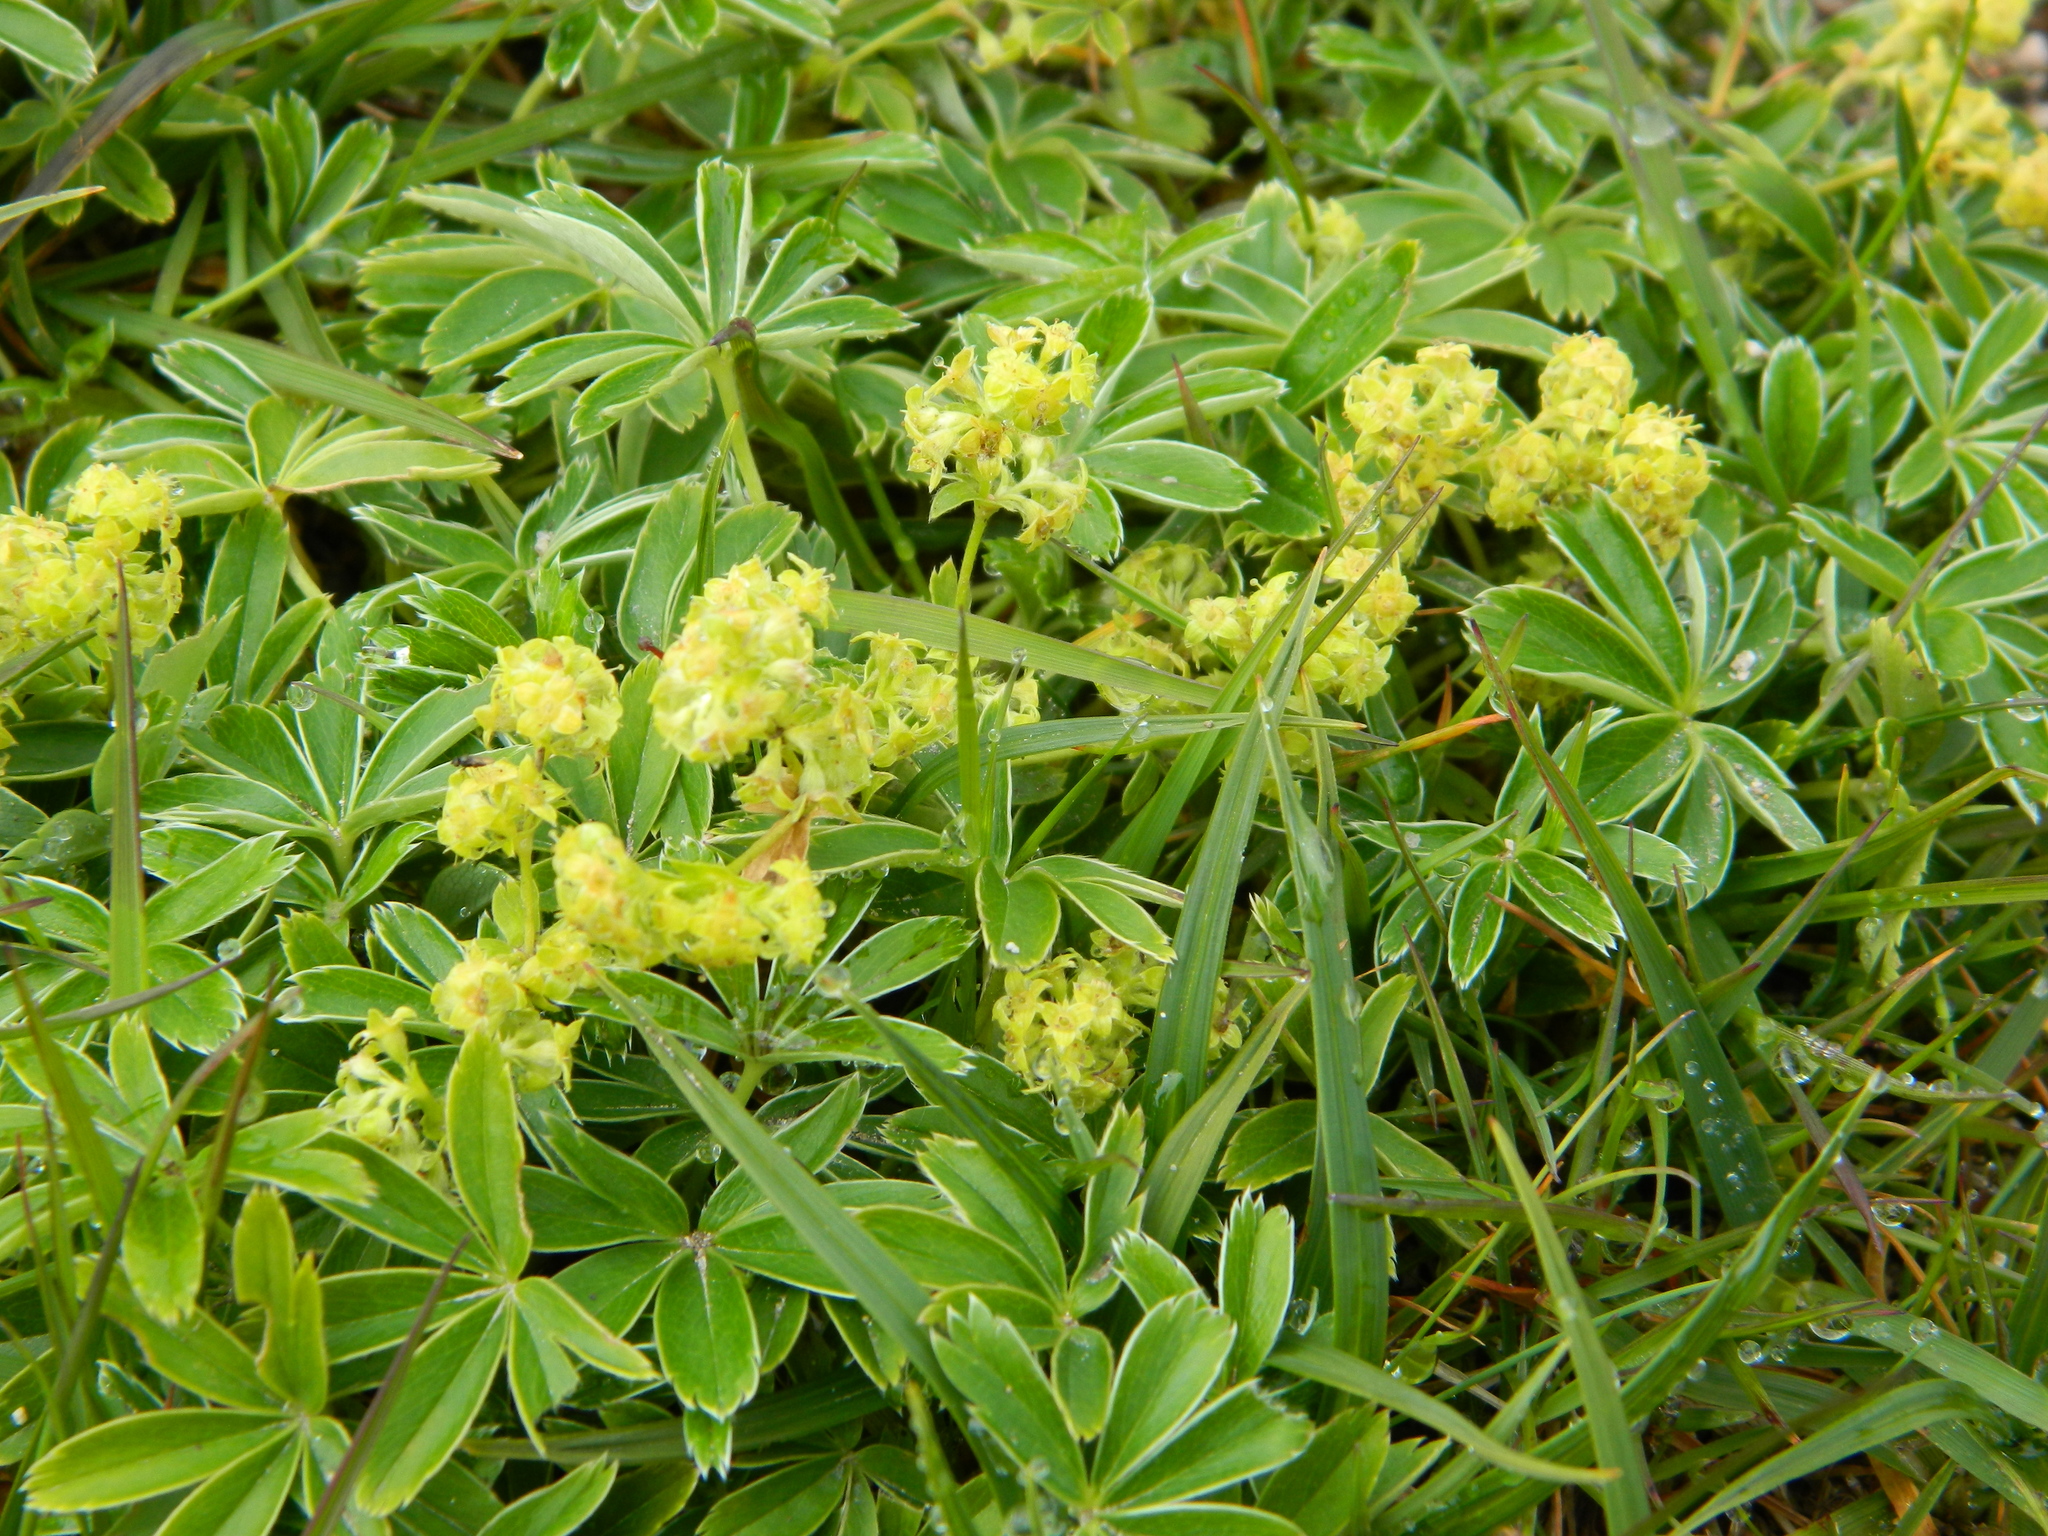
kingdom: Plantae
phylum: Tracheophyta
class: Magnoliopsida
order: Rosales
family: Rosaceae
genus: Alchemilla
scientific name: Alchemilla alpina
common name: Alpine lady's-mantle
